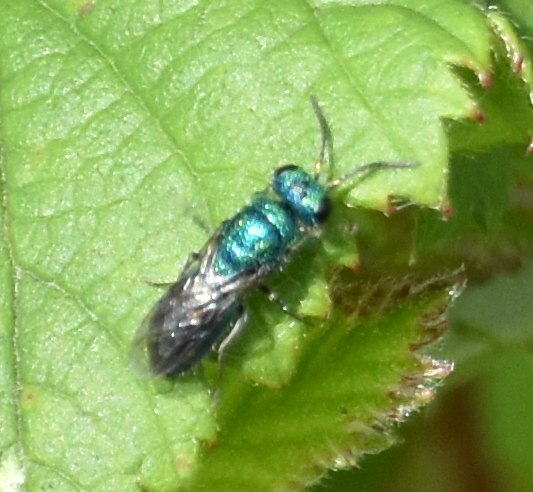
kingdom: Animalia
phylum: Arthropoda
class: Insecta
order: Hymenoptera
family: Pompilidae
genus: Pepsis
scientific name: Pepsis cyanea
